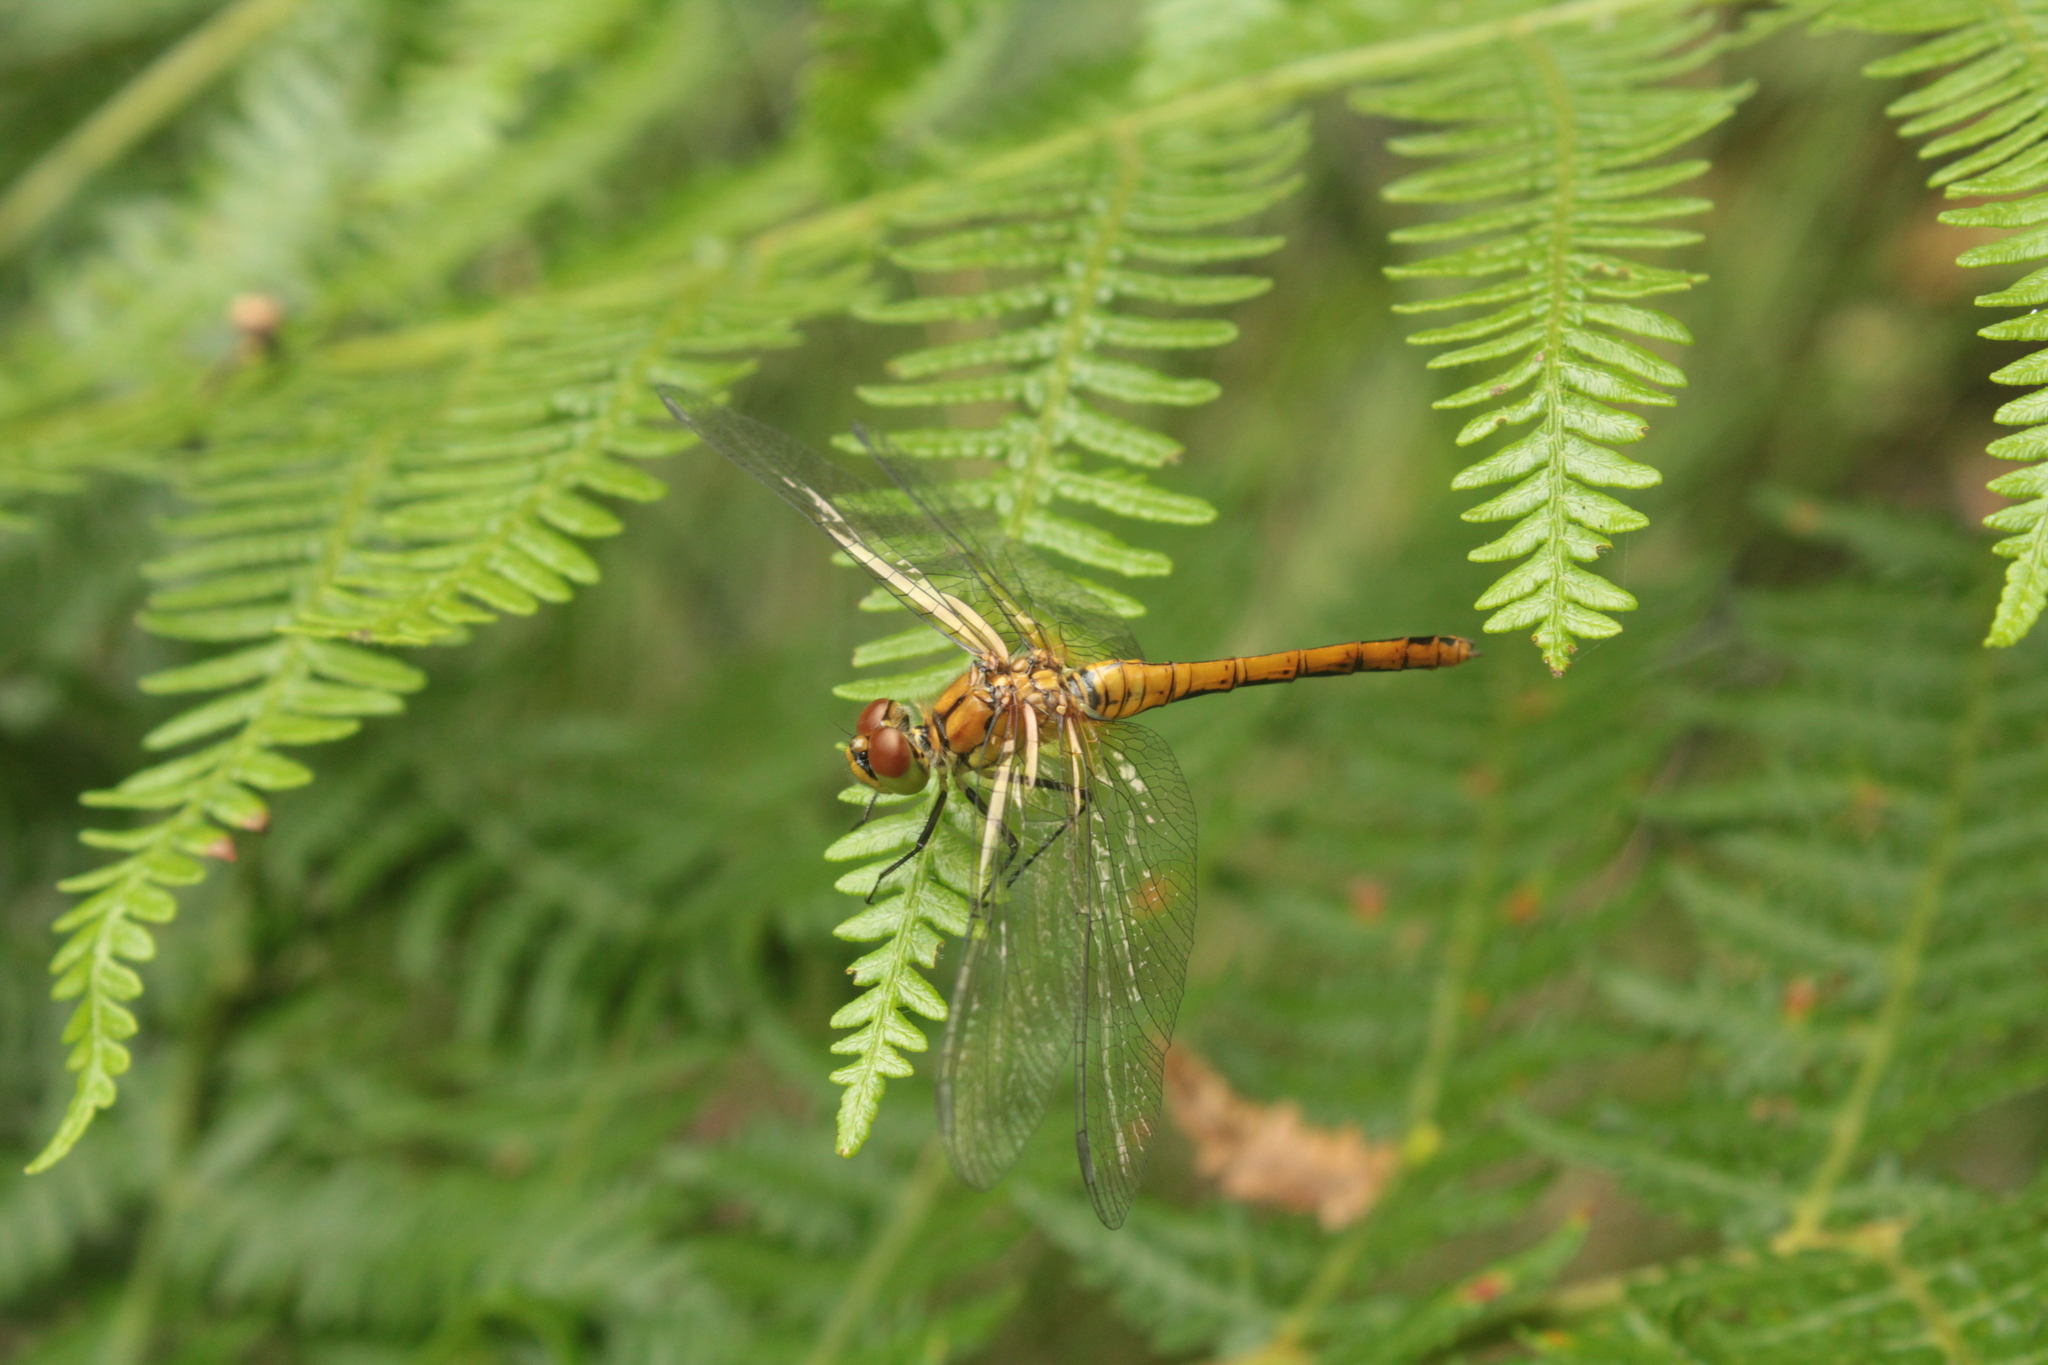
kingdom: Animalia
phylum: Arthropoda
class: Insecta
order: Odonata
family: Libellulidae
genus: Sympetrum
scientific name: Sympetrum sanguineum
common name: Ruddy darter
